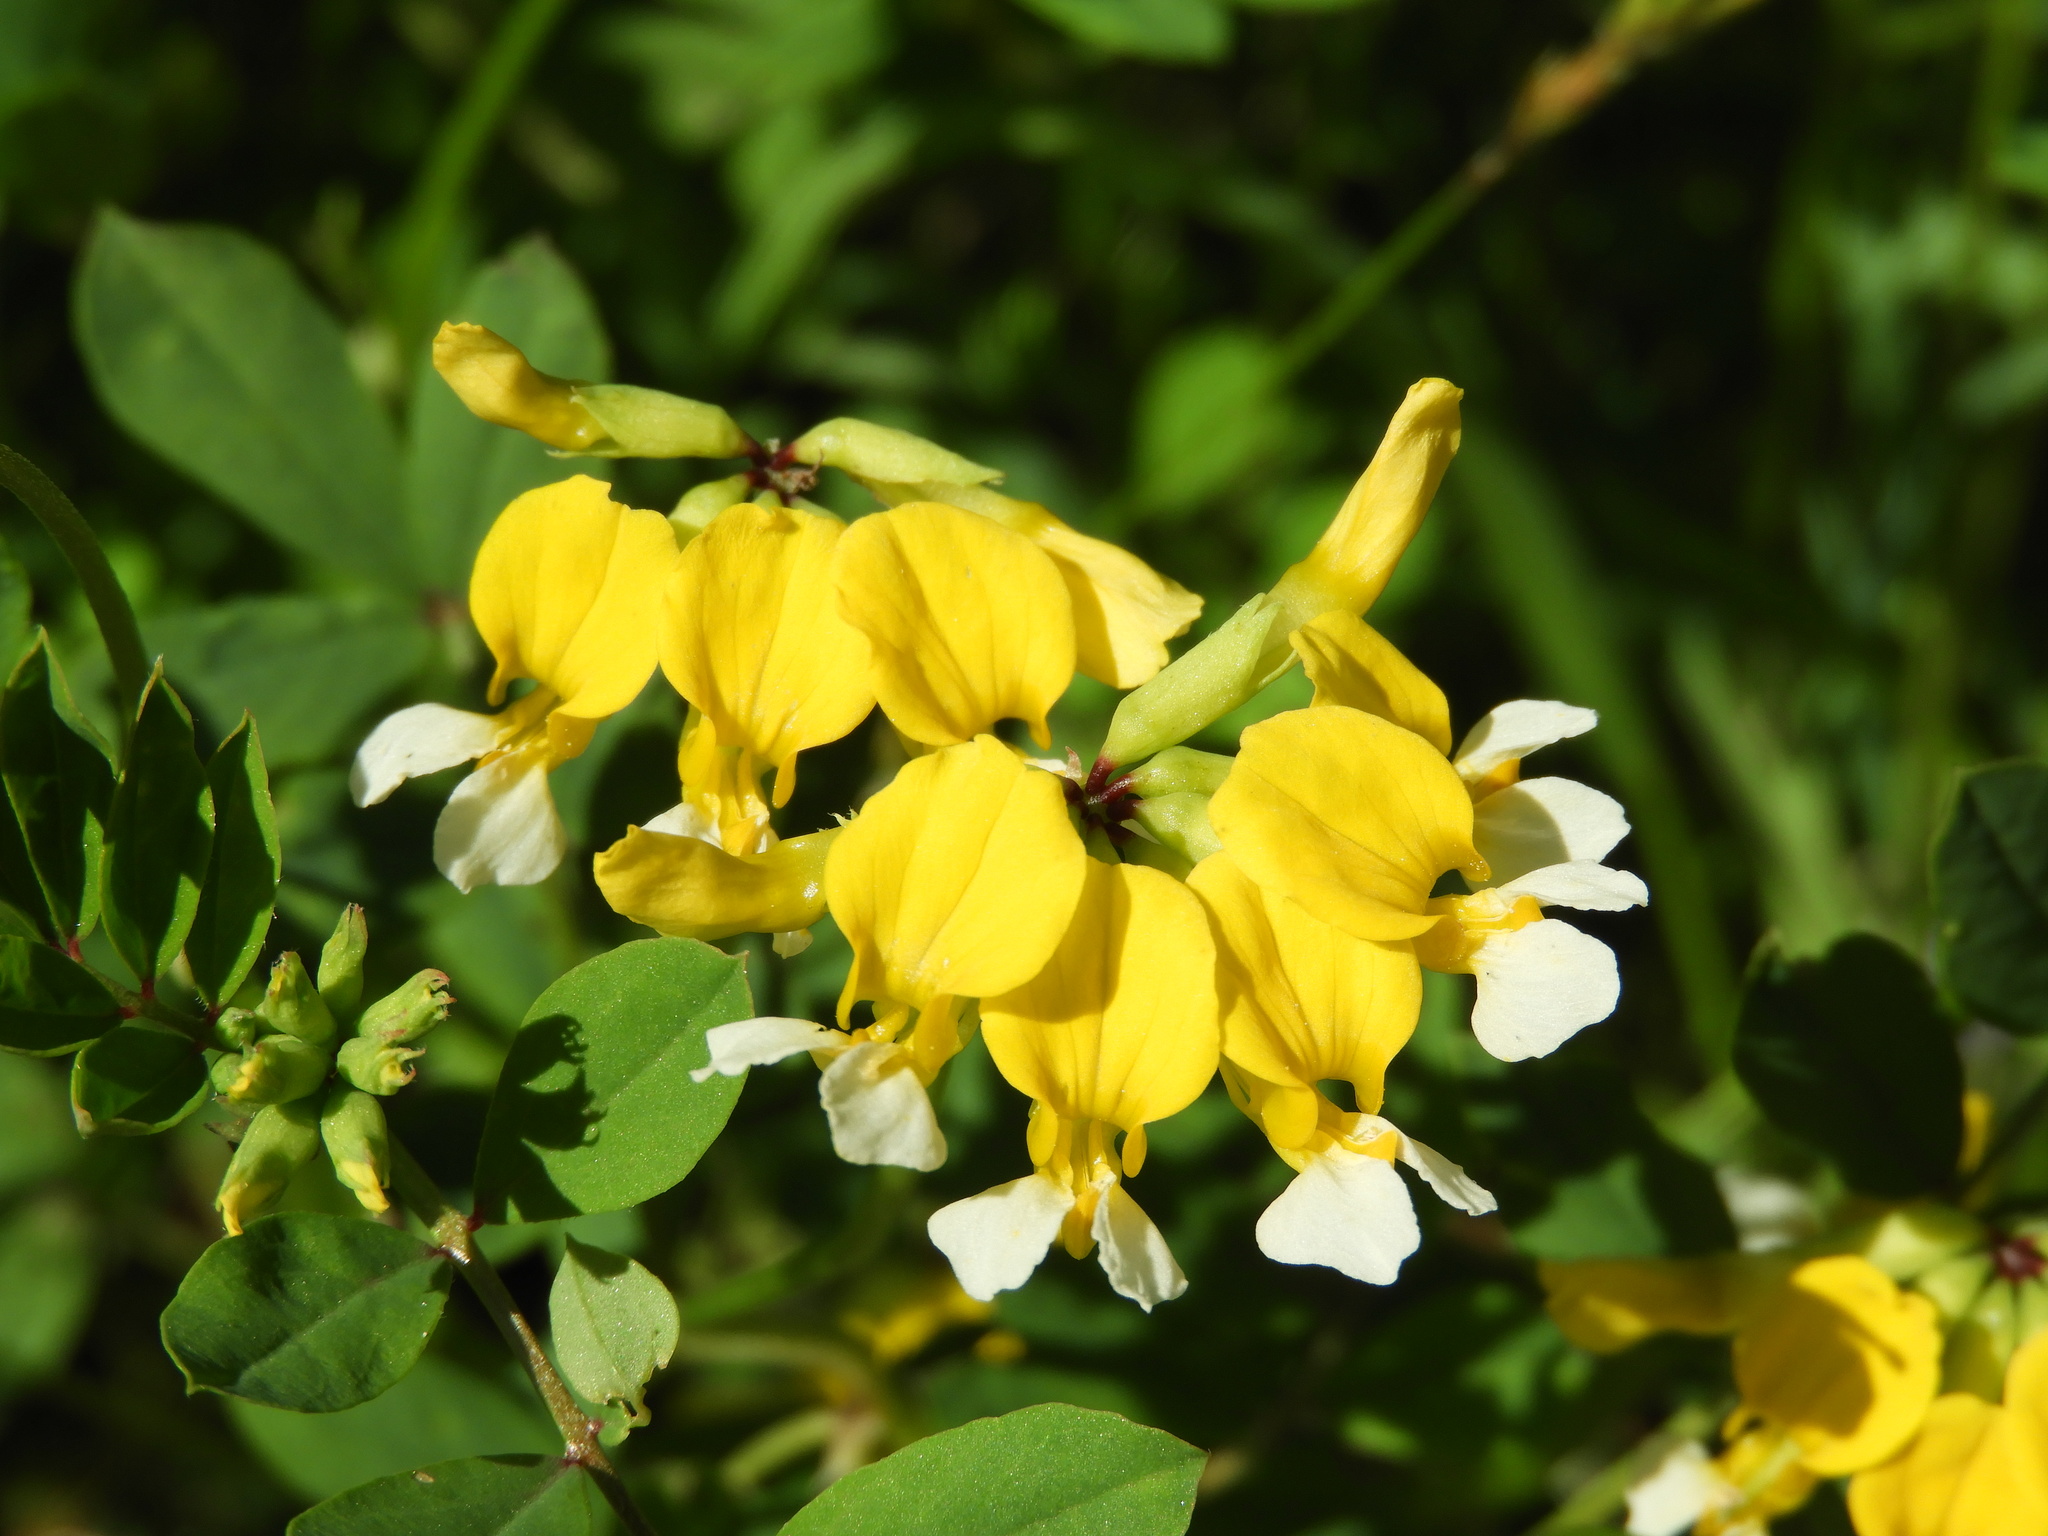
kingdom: Plantae
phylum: Tracheophyta
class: Magnoliopsida
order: Fabales
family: Fabaceae
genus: Hosackia
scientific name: Hosackia pinnata
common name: Bog bird's-foot trefoil
